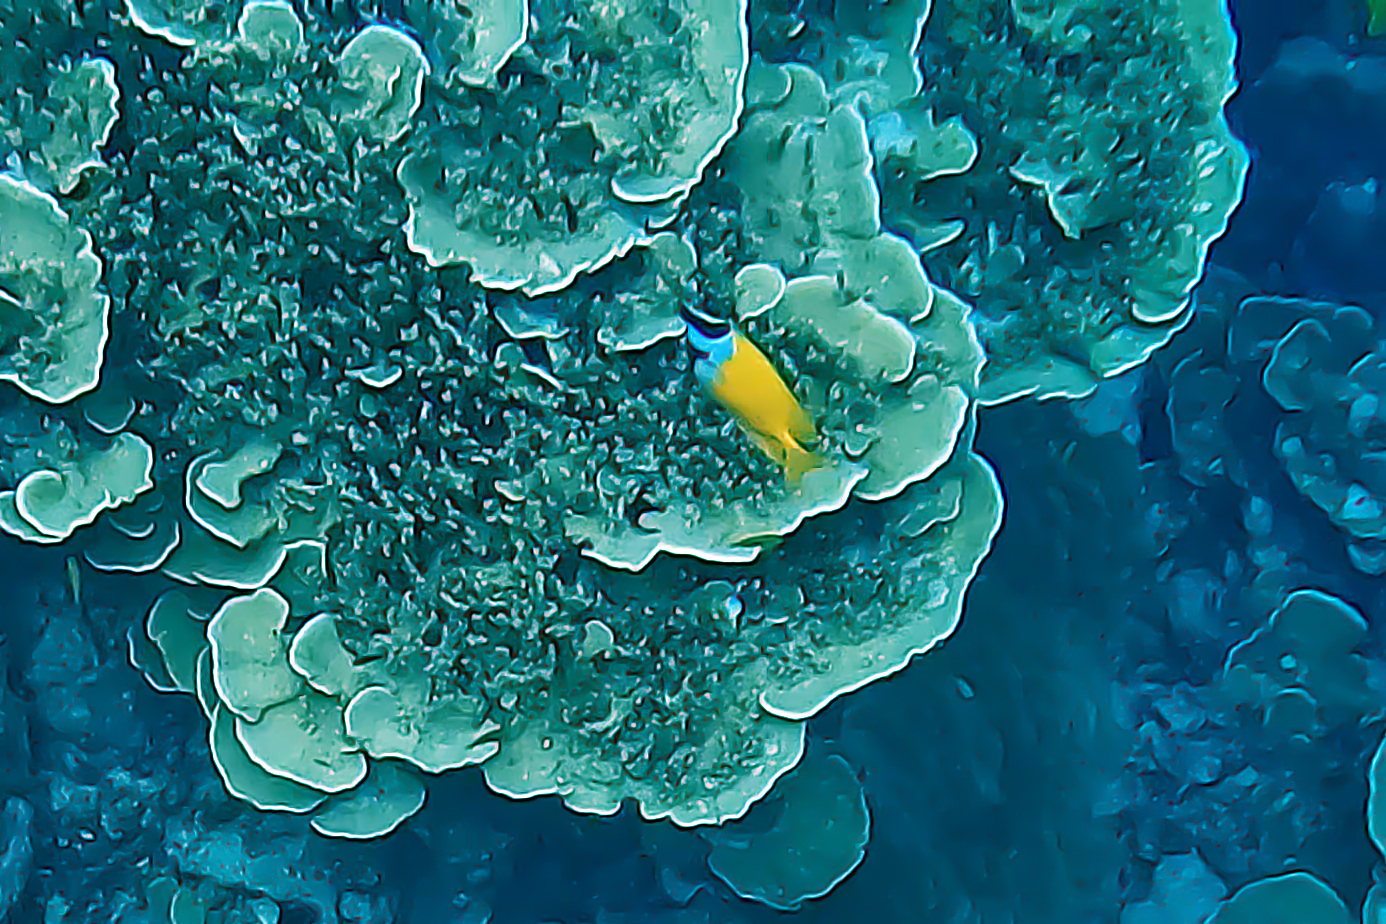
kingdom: Animalia
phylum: Chordata
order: Perciformes
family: Siganidae
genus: Siganus
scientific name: Siganus vulpinus
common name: Foxface
